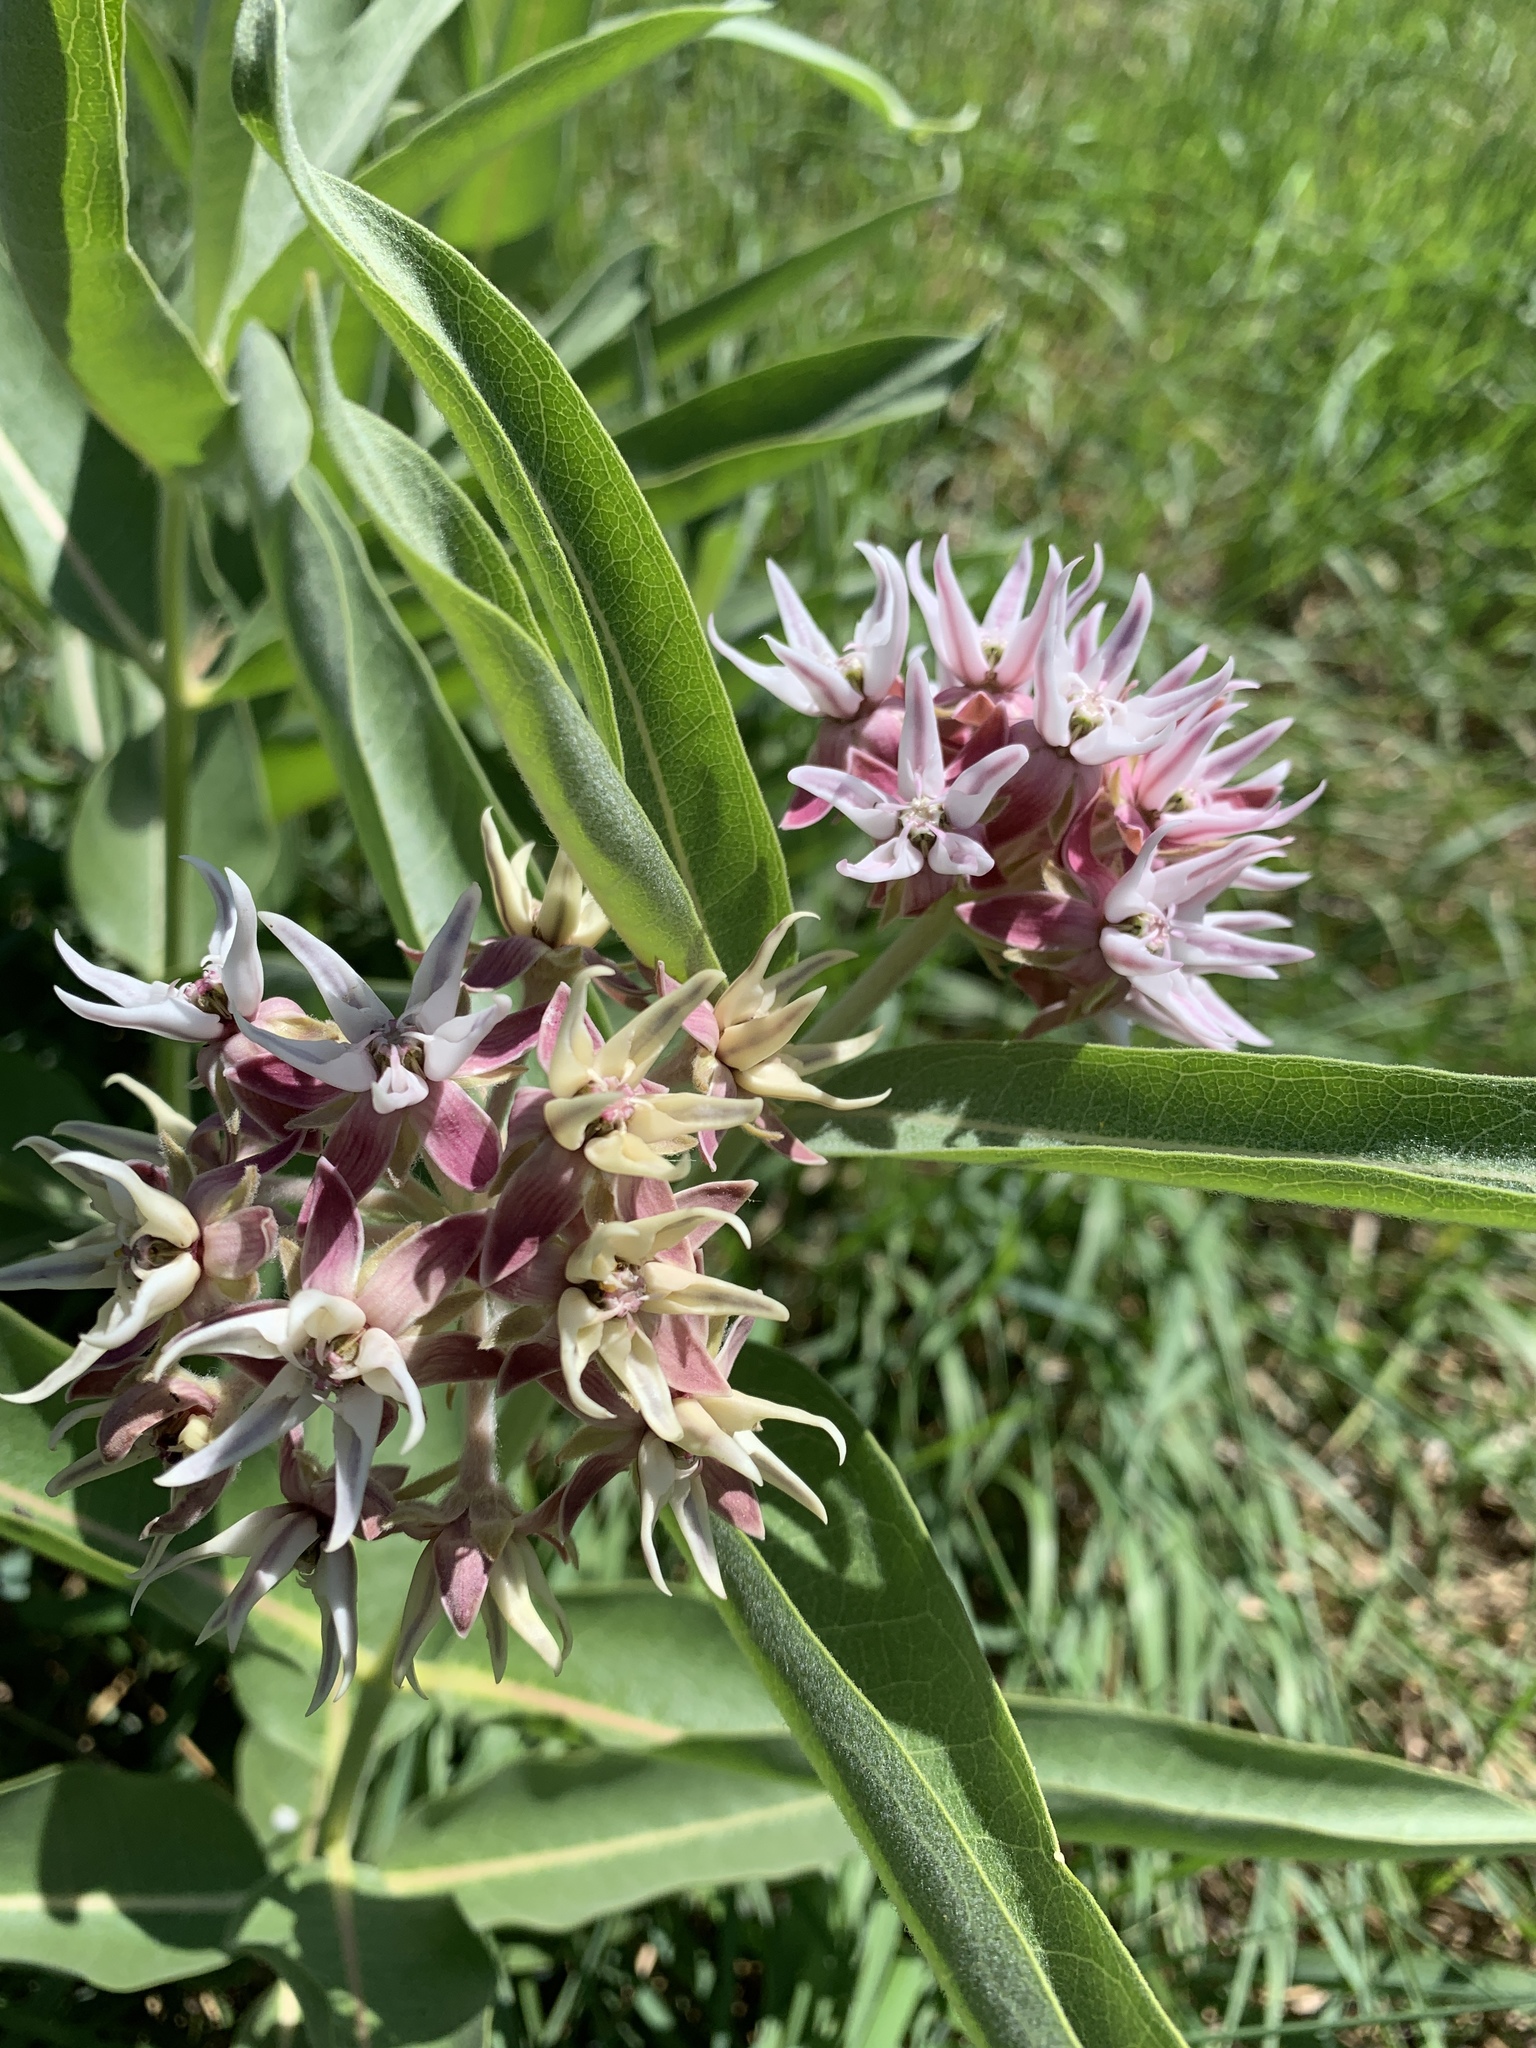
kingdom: Plantae
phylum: Tracheophyta
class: Magnoliopsida
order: Gentianales
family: Apocynaceae
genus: Asclepias
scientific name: Asclepias speciosa
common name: Showy milkweed
